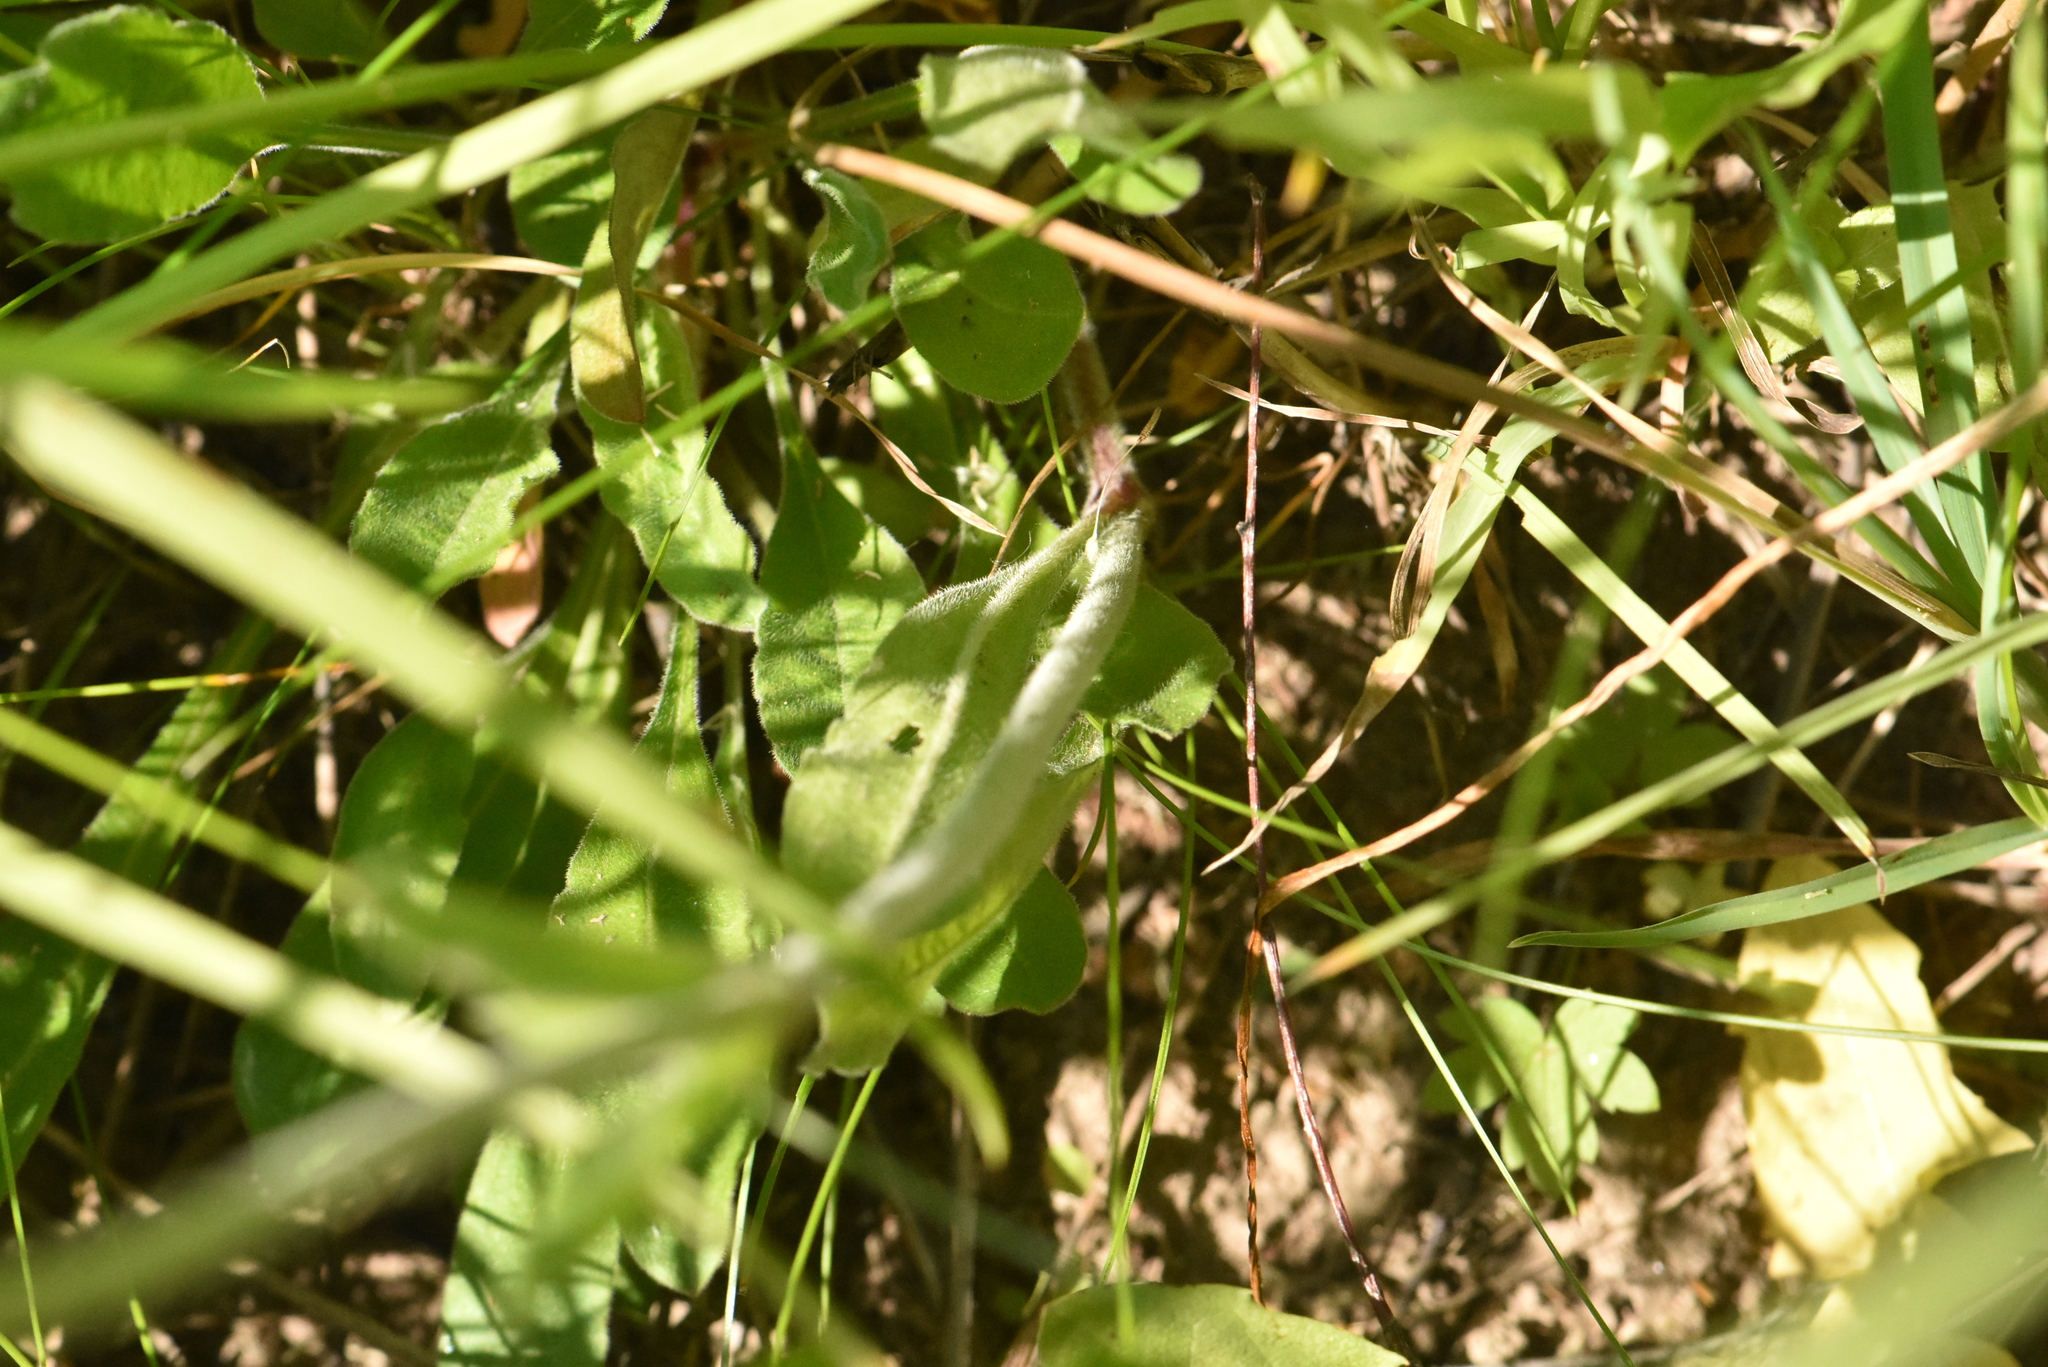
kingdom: Plantae
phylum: Tracheophyta
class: Magnoliopsida
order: Caryophyllales
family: Caryophyllaceae
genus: Silene
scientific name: Silene nutans
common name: Nottingham catchfly
